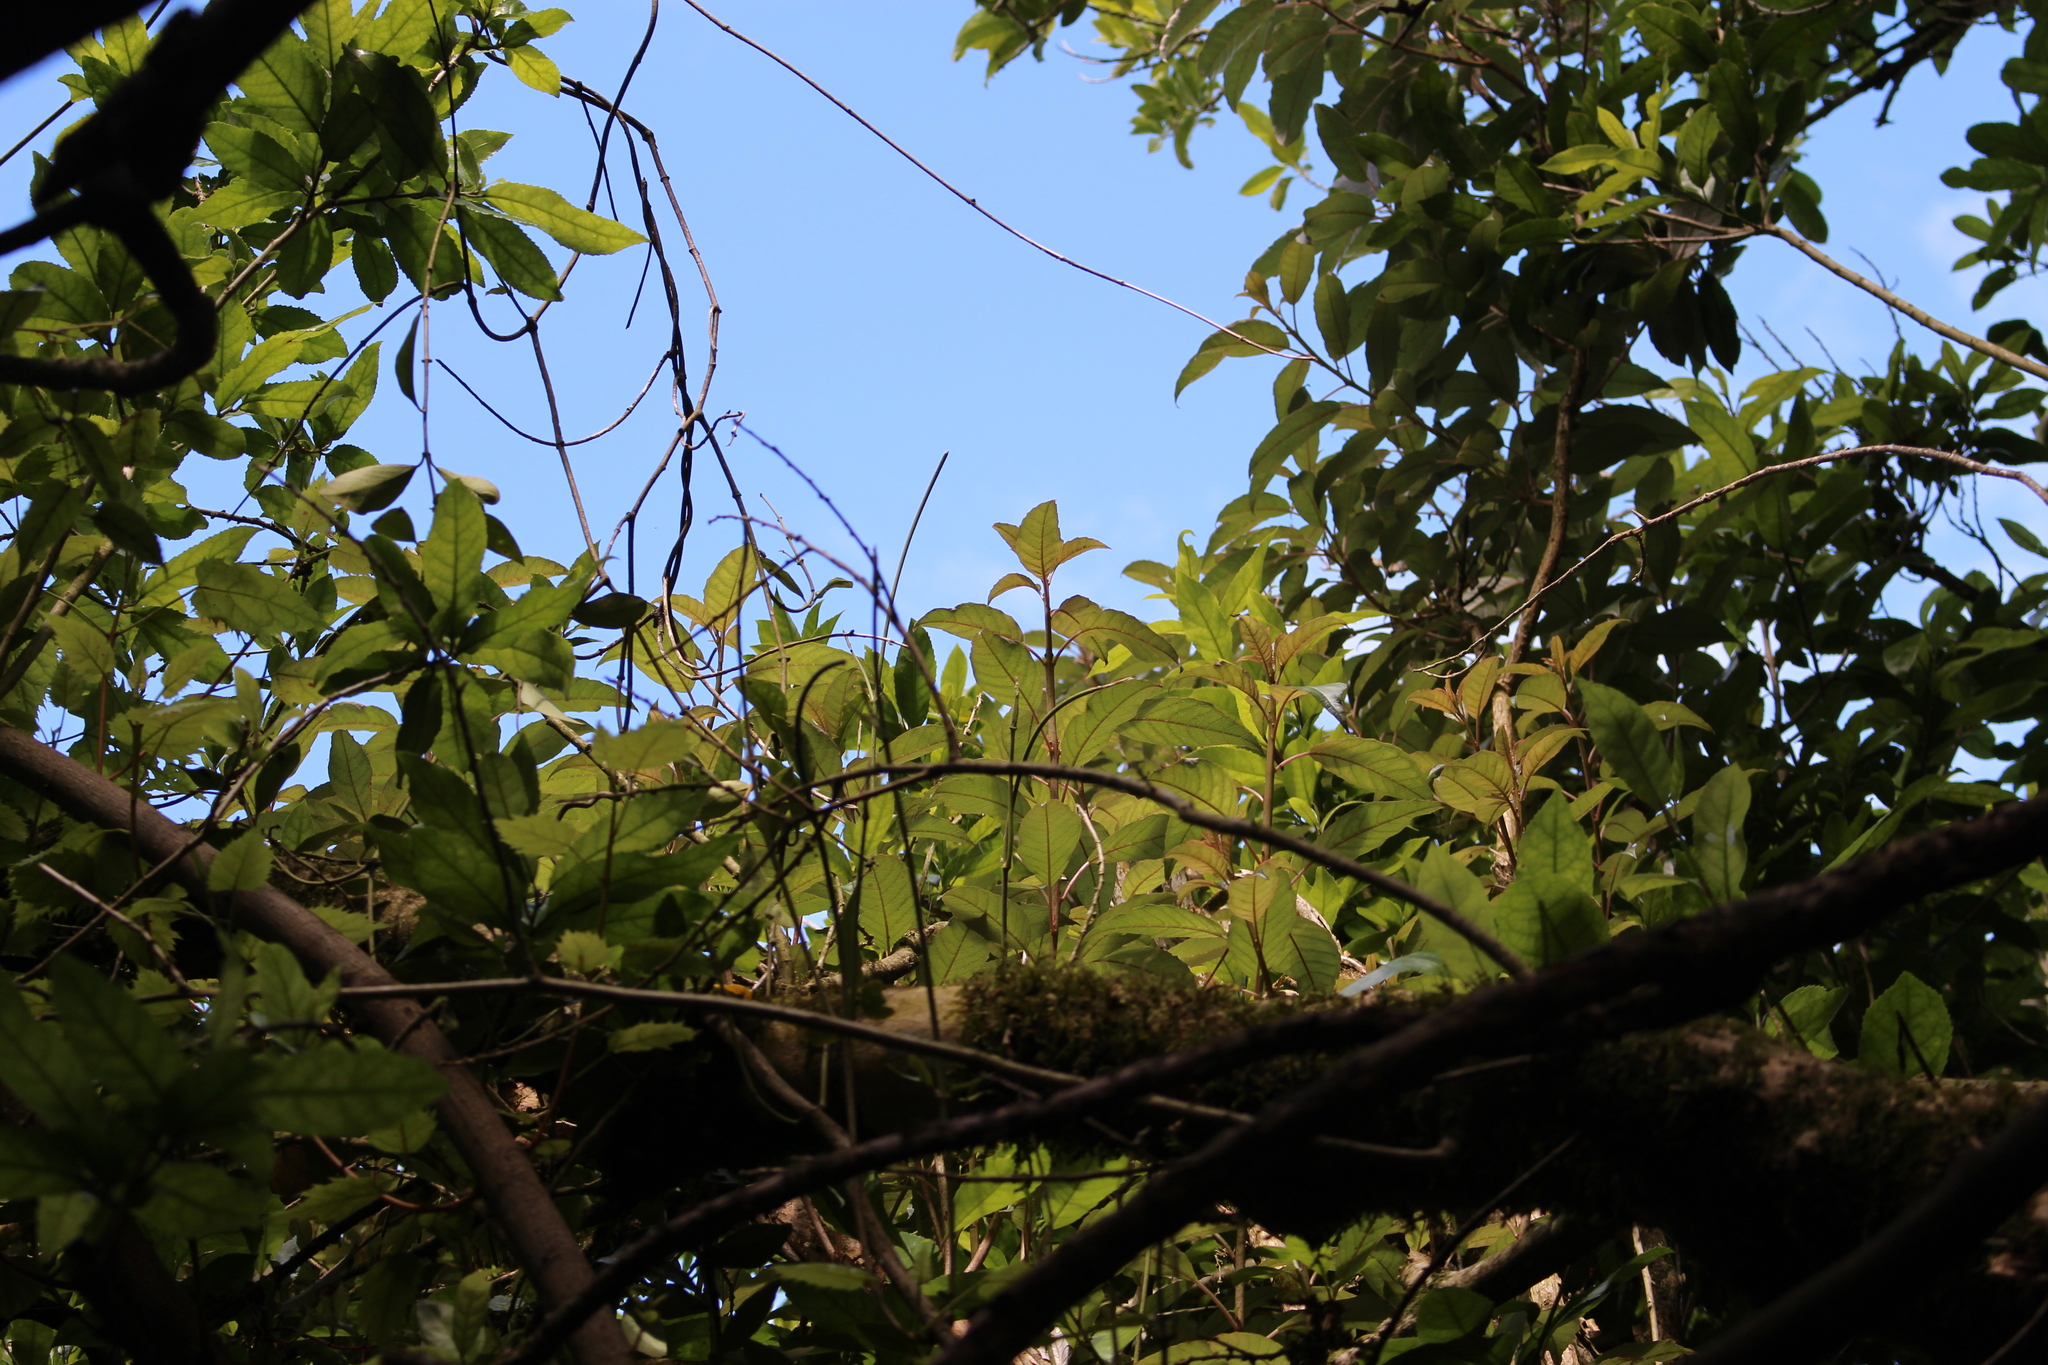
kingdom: Plantae
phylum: Tracheophyta
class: Magnoliopsida
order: Myrtales
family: Onagraceae
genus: Fuchsia
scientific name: Fuchsia excorticata
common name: Tree fuchsia
